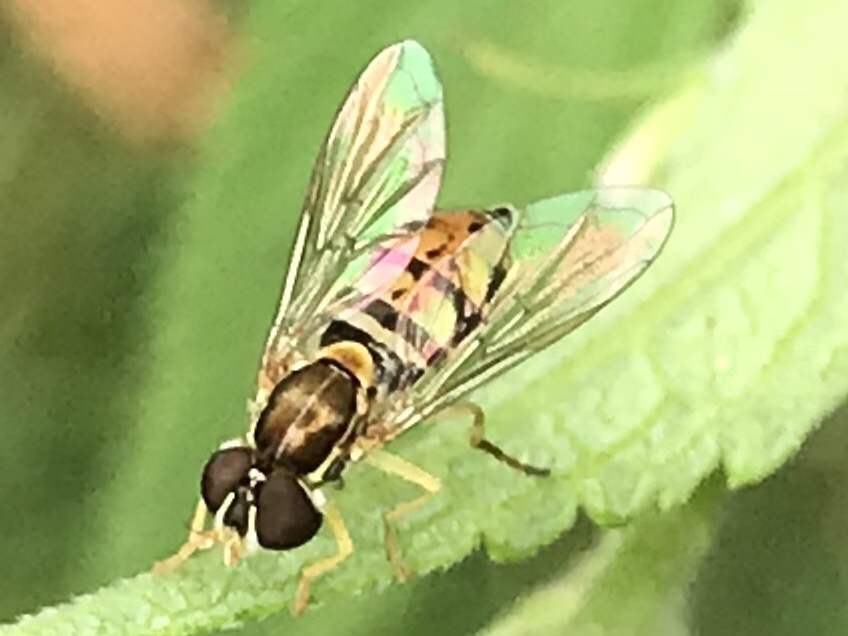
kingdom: Animalia
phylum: Arthropoda
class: Insecta
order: Diptera
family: Syrphidae
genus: Toxomerus
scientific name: Toxomerus marginatus
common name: Syrphid fly
